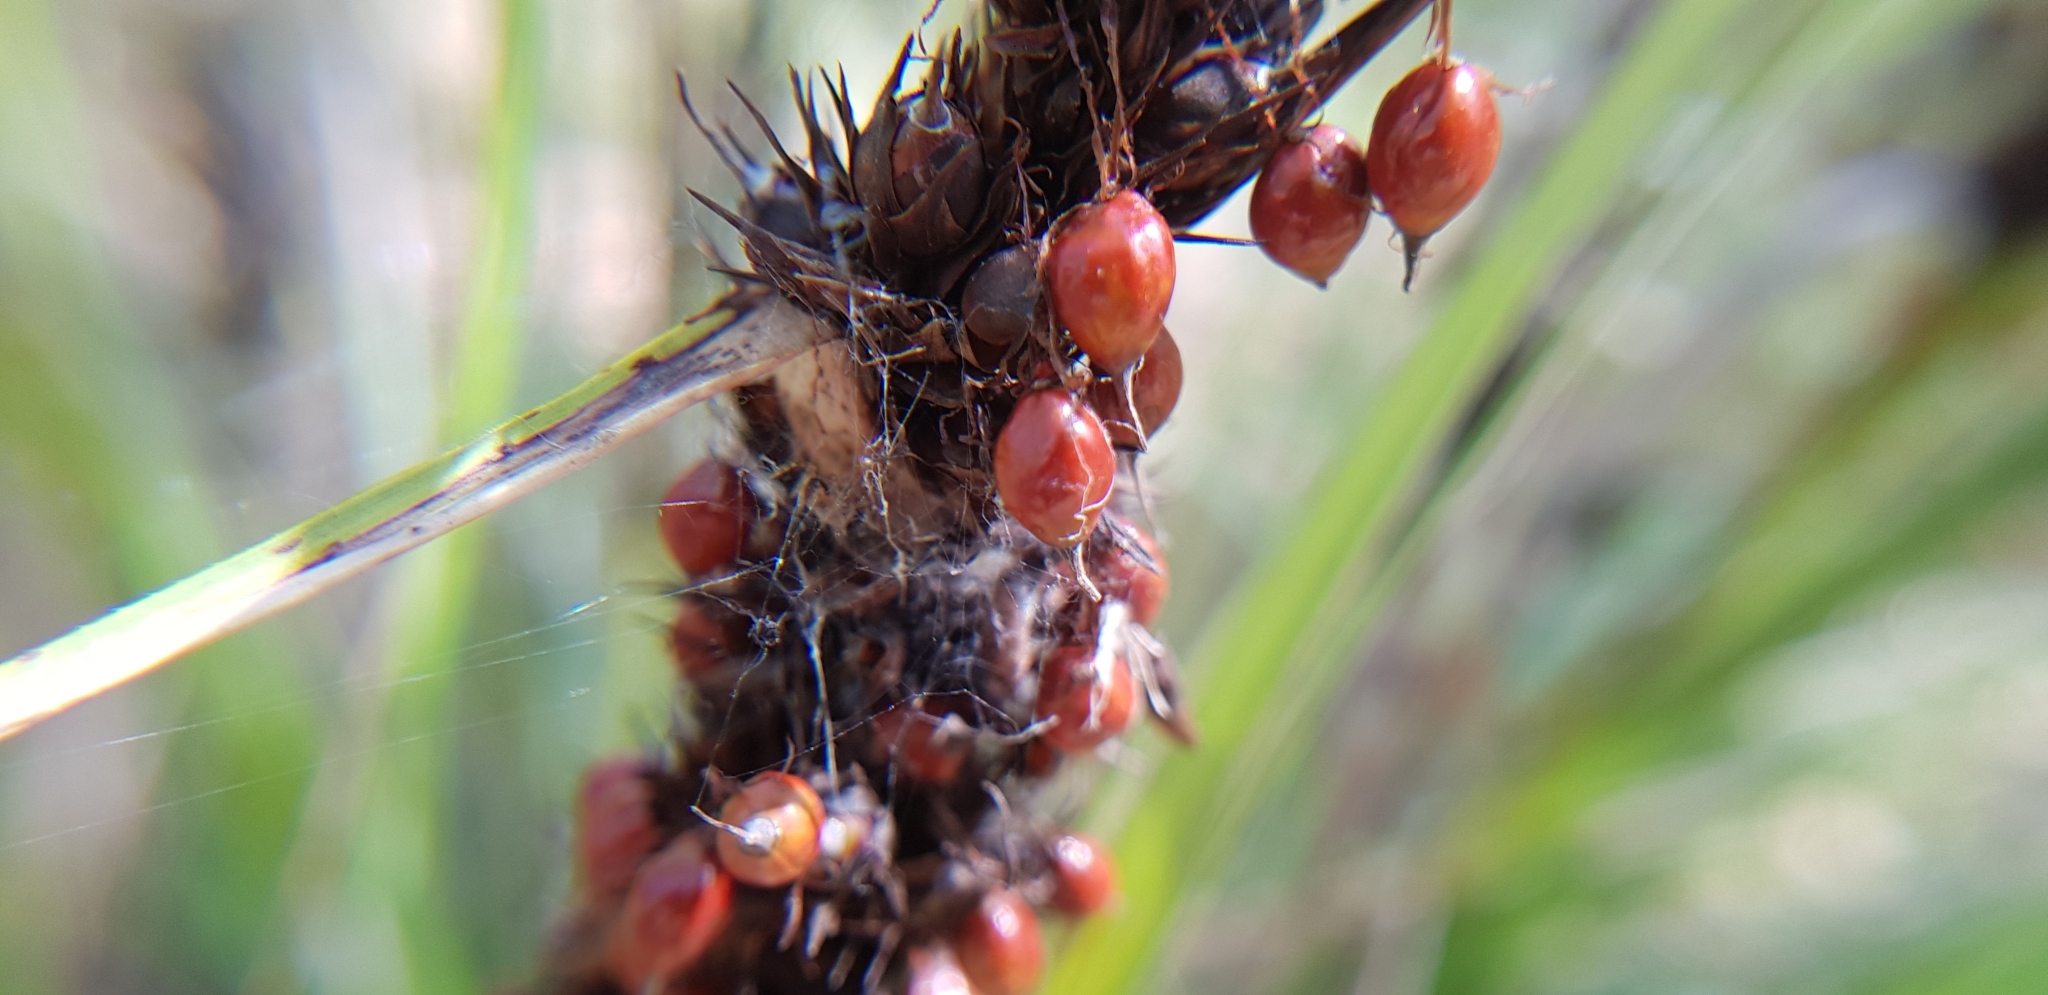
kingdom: Plantae
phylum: Tracheophyta
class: Liliopsida
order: Poales
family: Cyperaceae
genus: Gahnia
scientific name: Gahnia aspera
